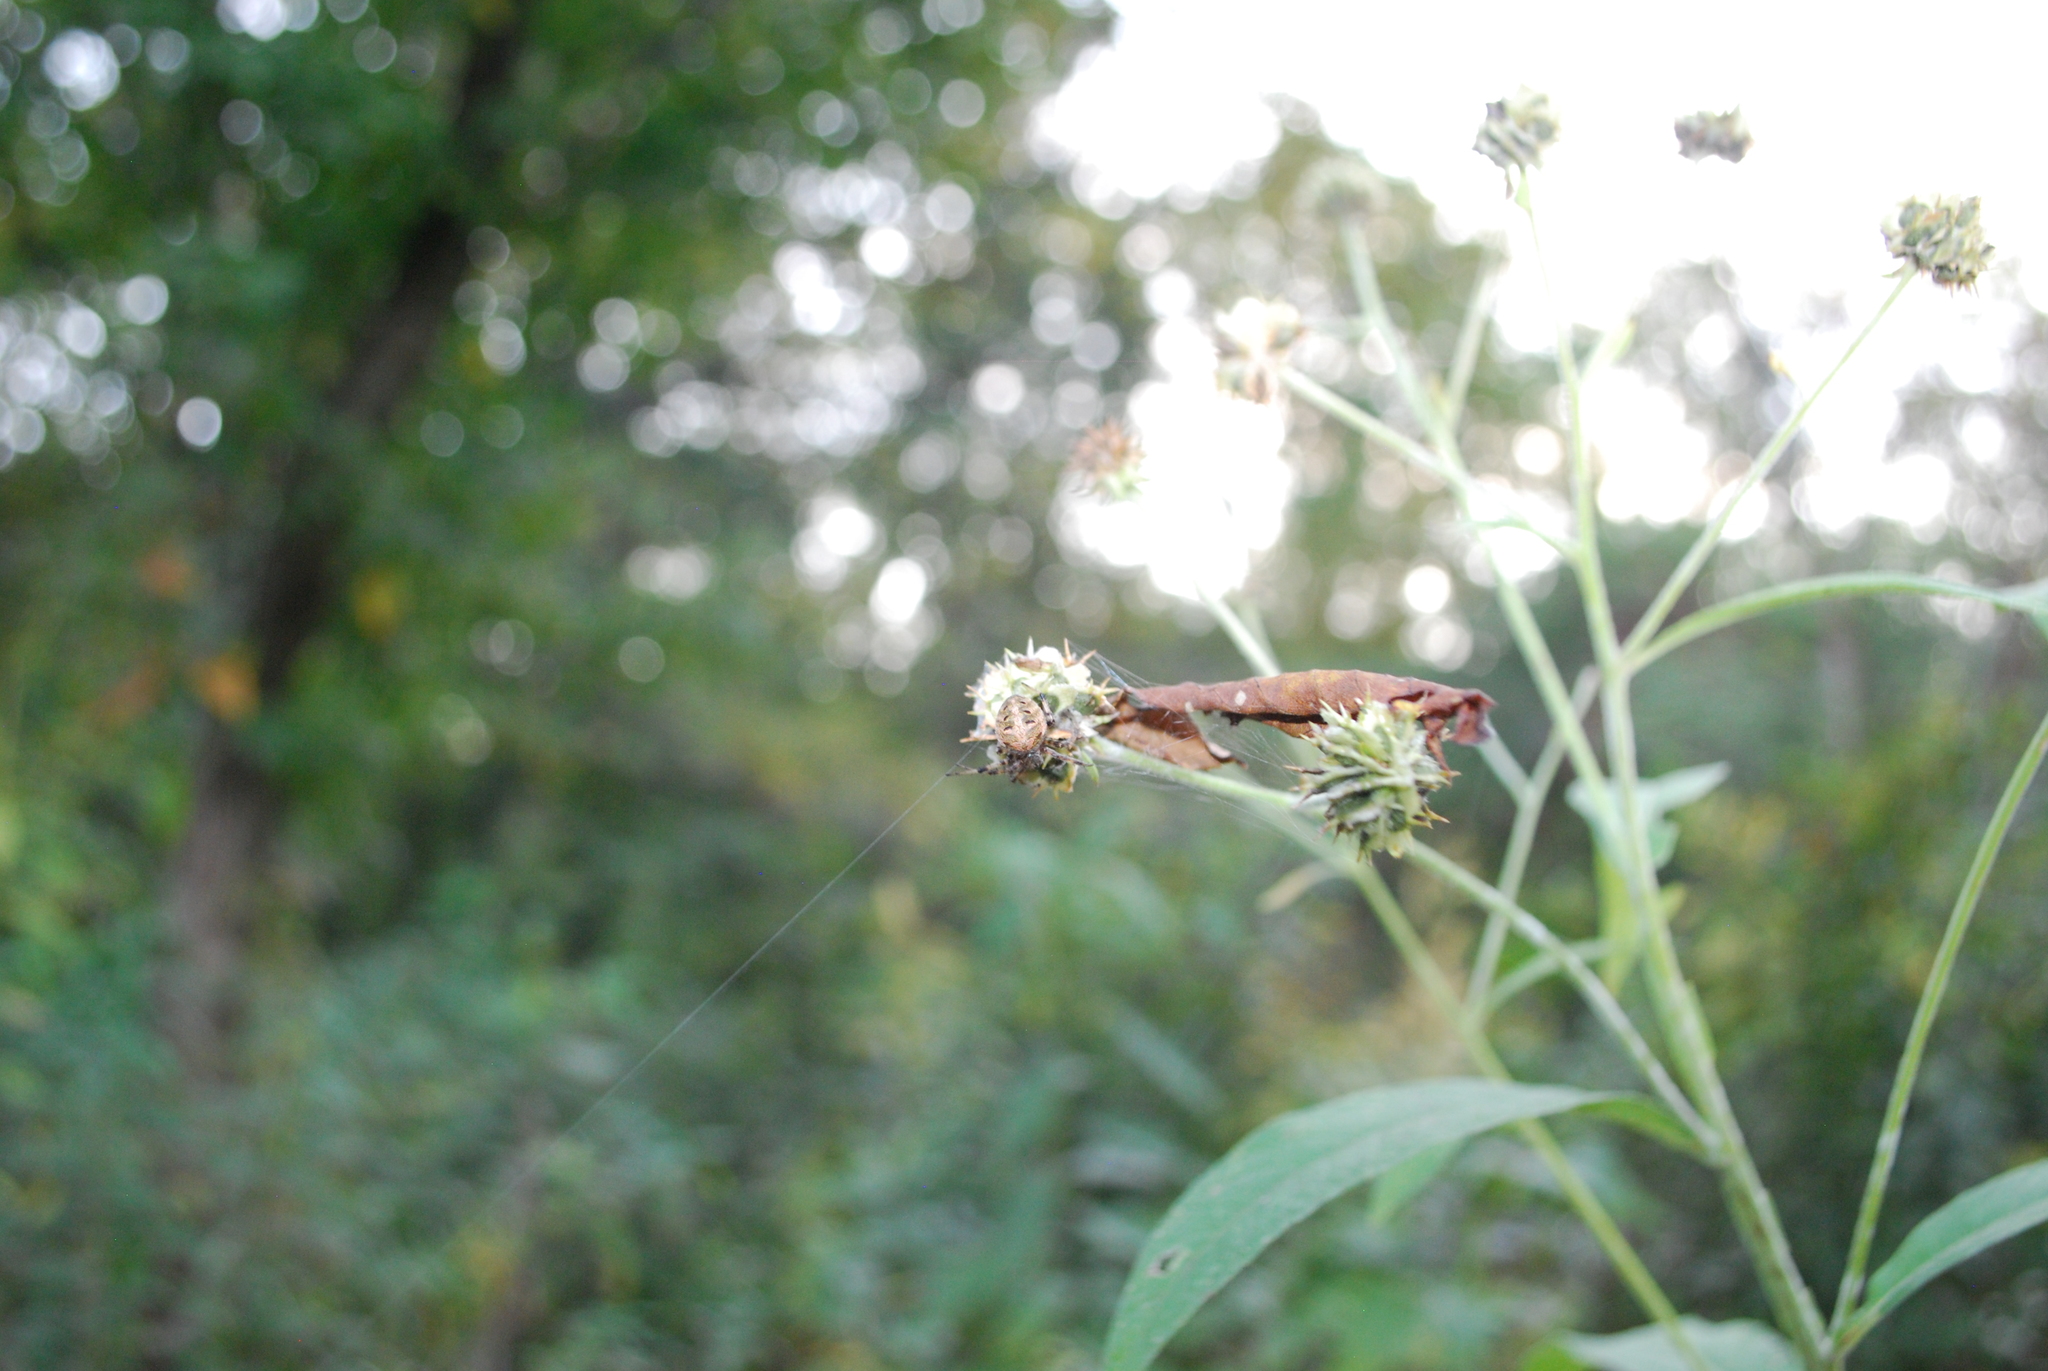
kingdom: Animalia
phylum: Arthropoda
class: Arachnida
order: Araneae
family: Araneidae
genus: Neoscona
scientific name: Neoscona arabesca
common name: Orb weavers
